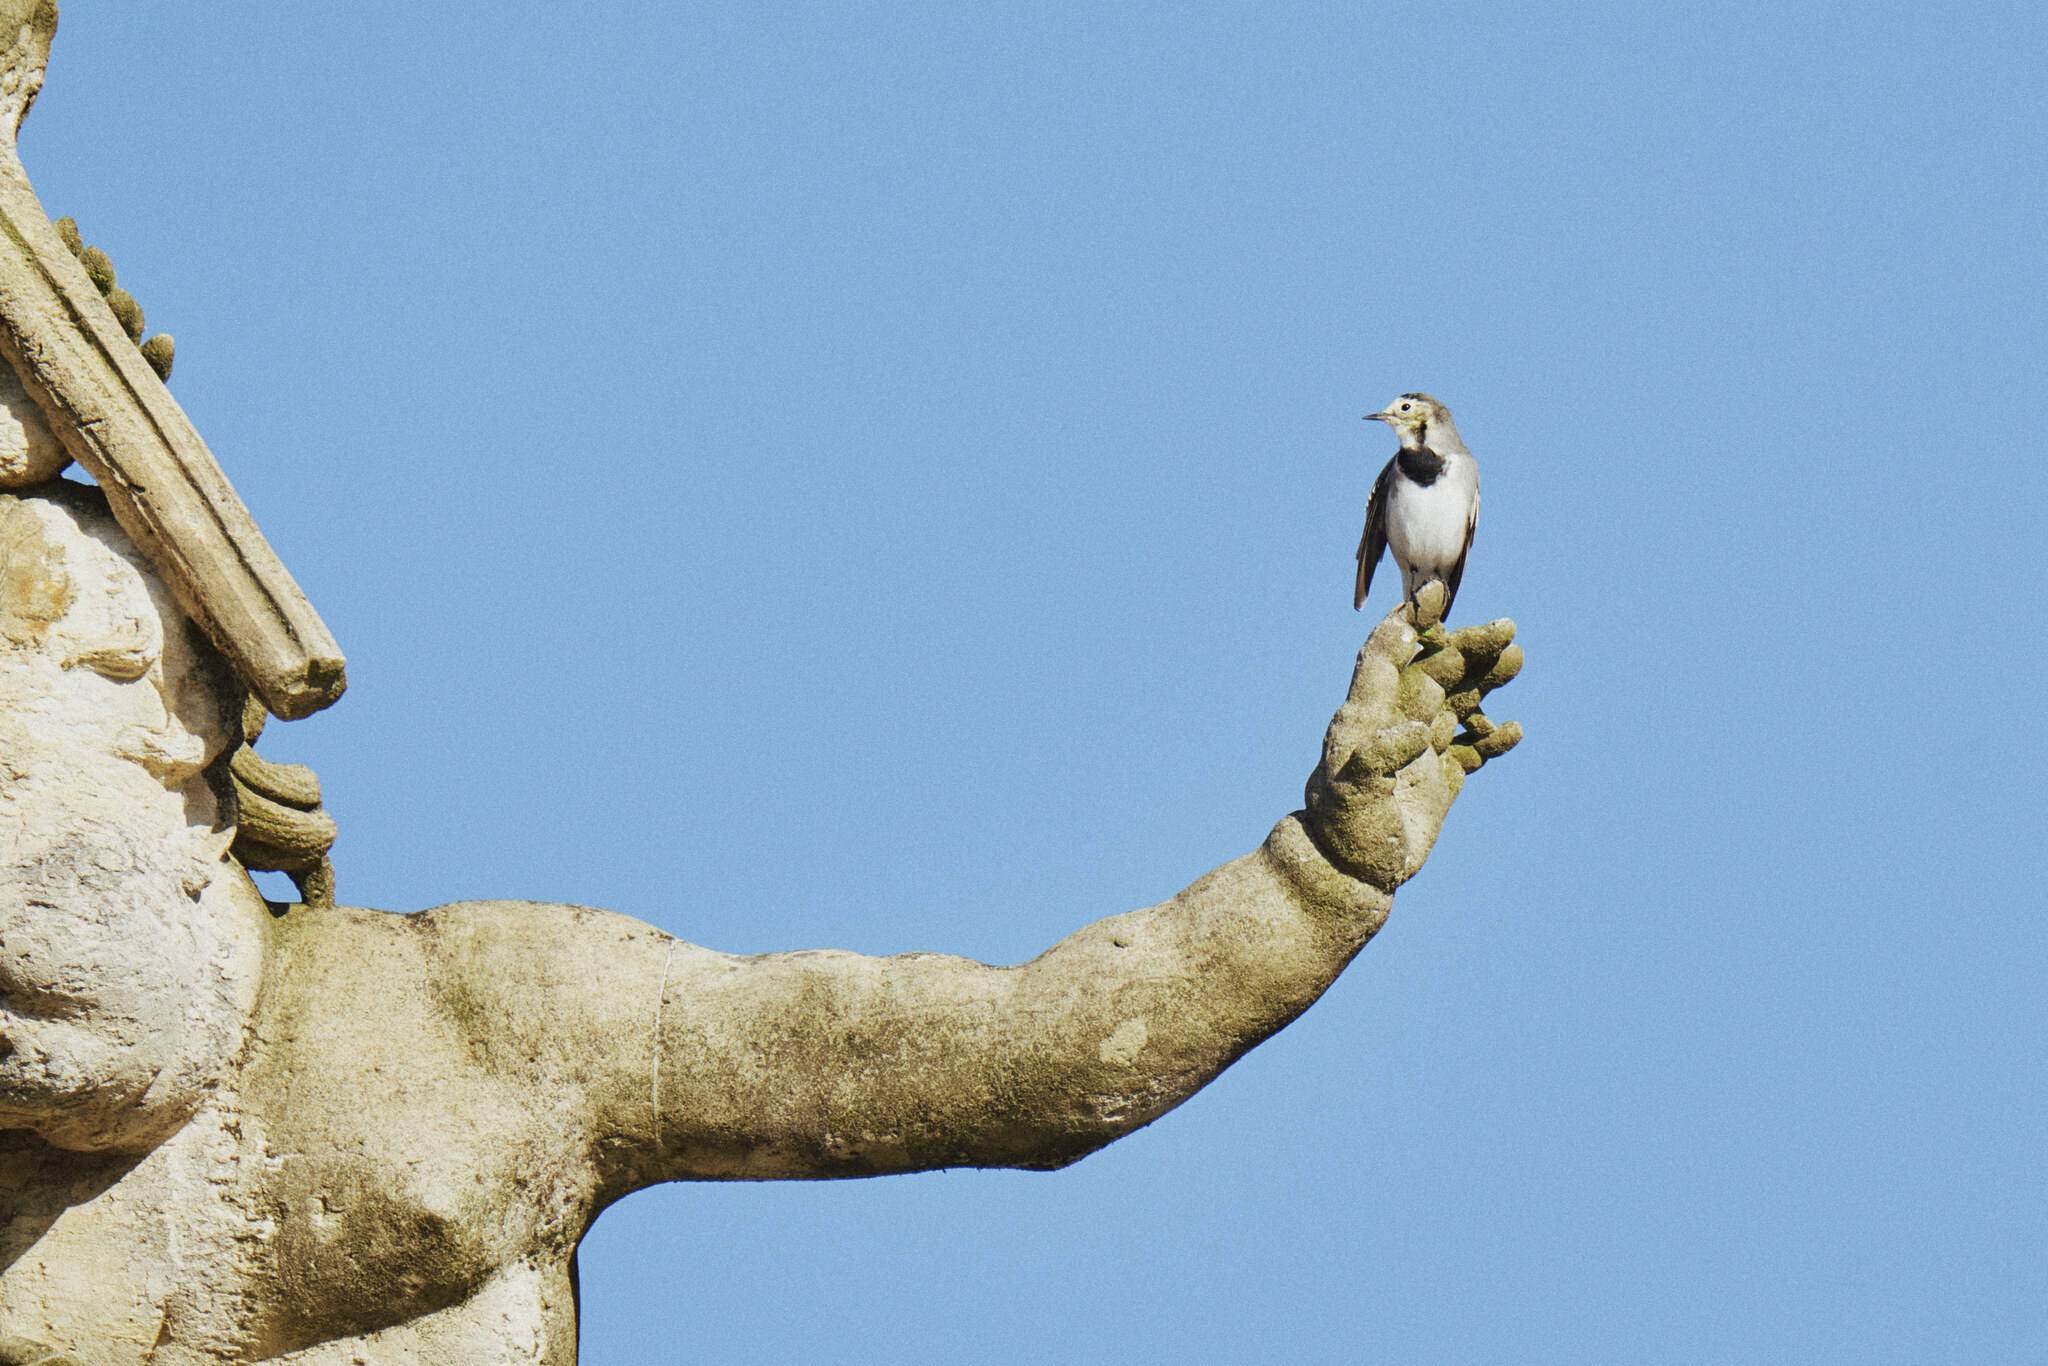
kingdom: Animalia
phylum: Chordata
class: Aves
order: Passeriformes
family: Motacillidae
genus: Motacilla
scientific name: Motacilla alba
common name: White wagtail
